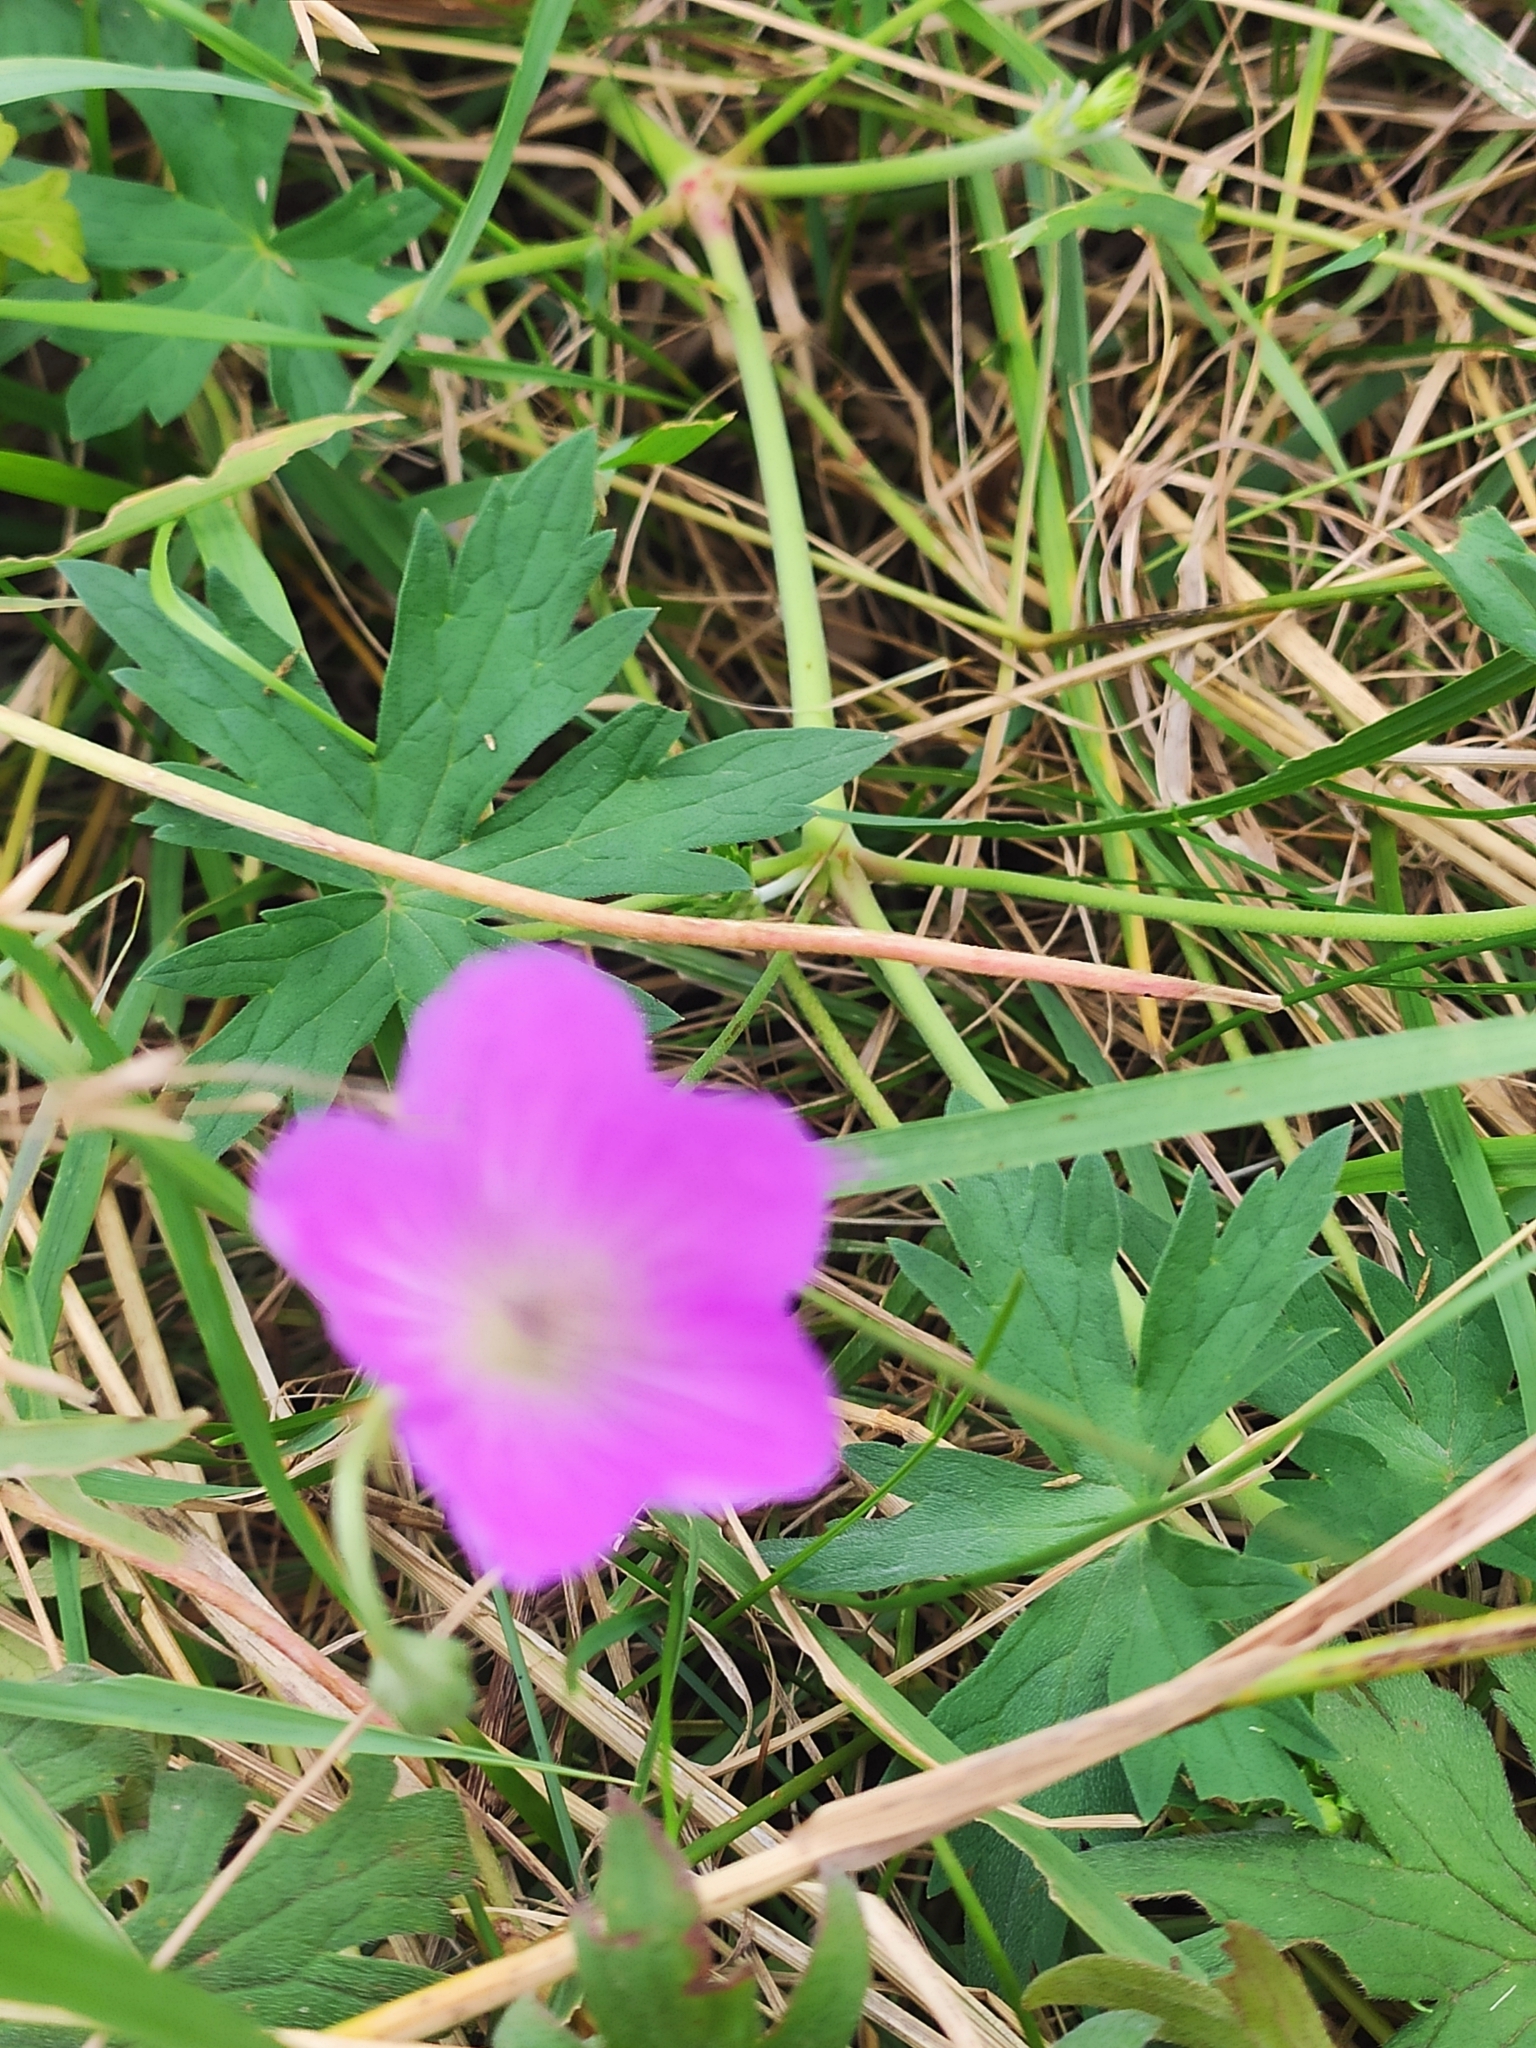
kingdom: Plantae
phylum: Tracheophyta
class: Magnoliopsida
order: Geraniales
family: Geraniaceae
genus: Geranium
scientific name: Geranium collinum
